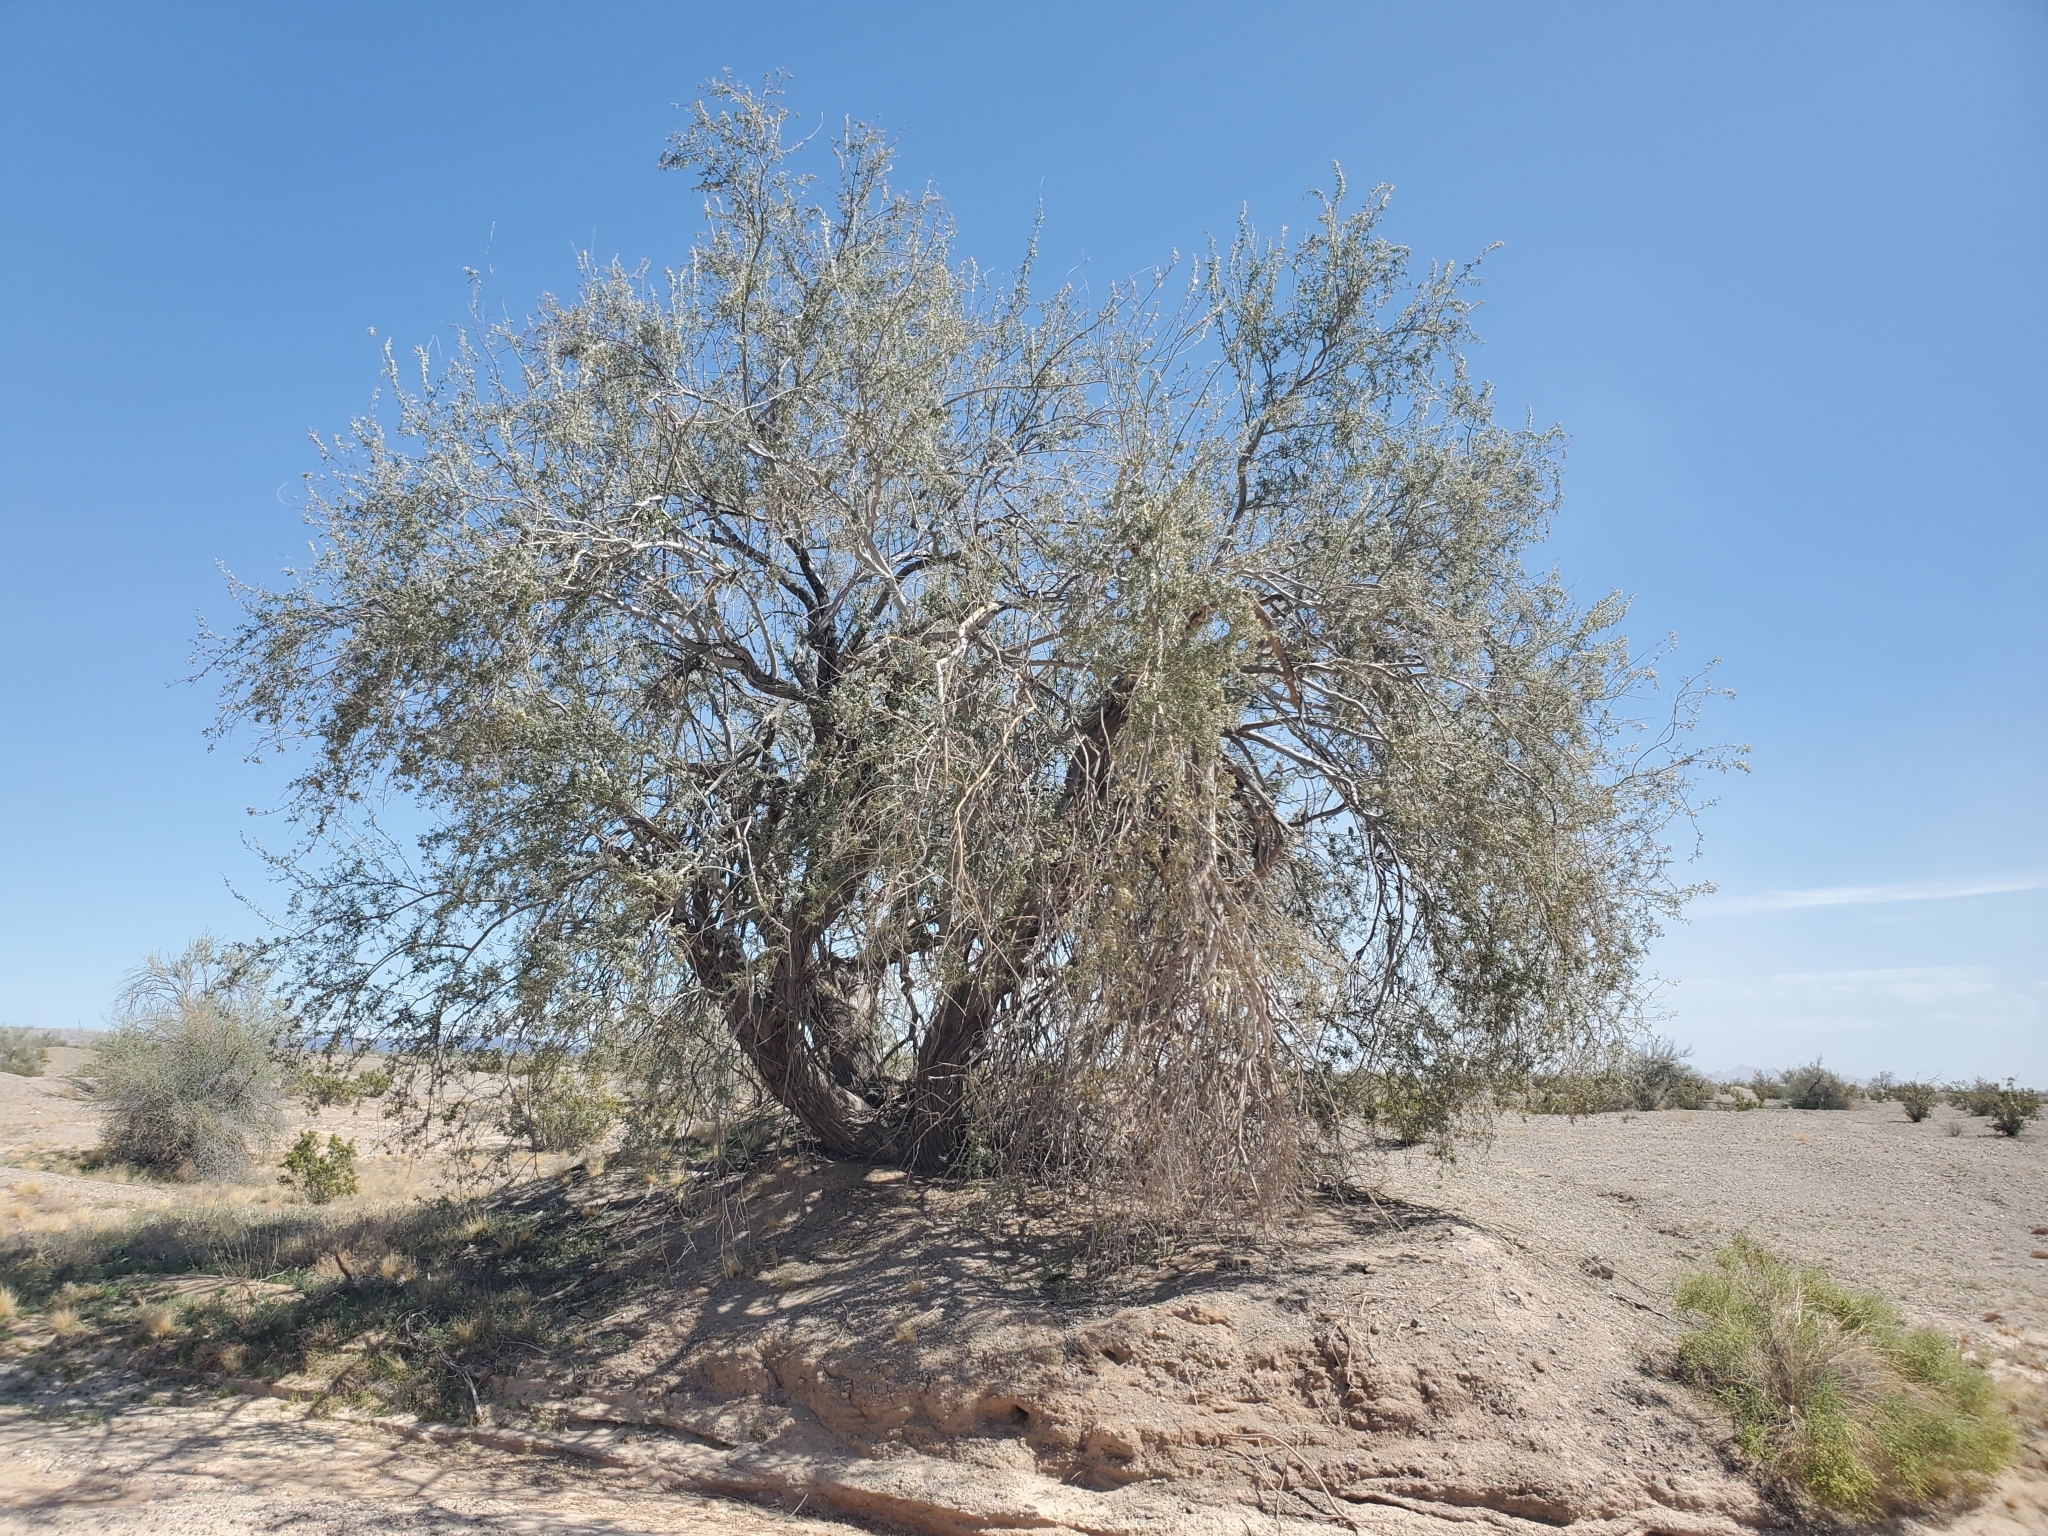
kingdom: Plantae
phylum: Tracheophyta
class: Magnoliopsida
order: Fabales
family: Fabaceae
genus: Olneya
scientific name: Olneya tesota
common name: Desert ironwood
